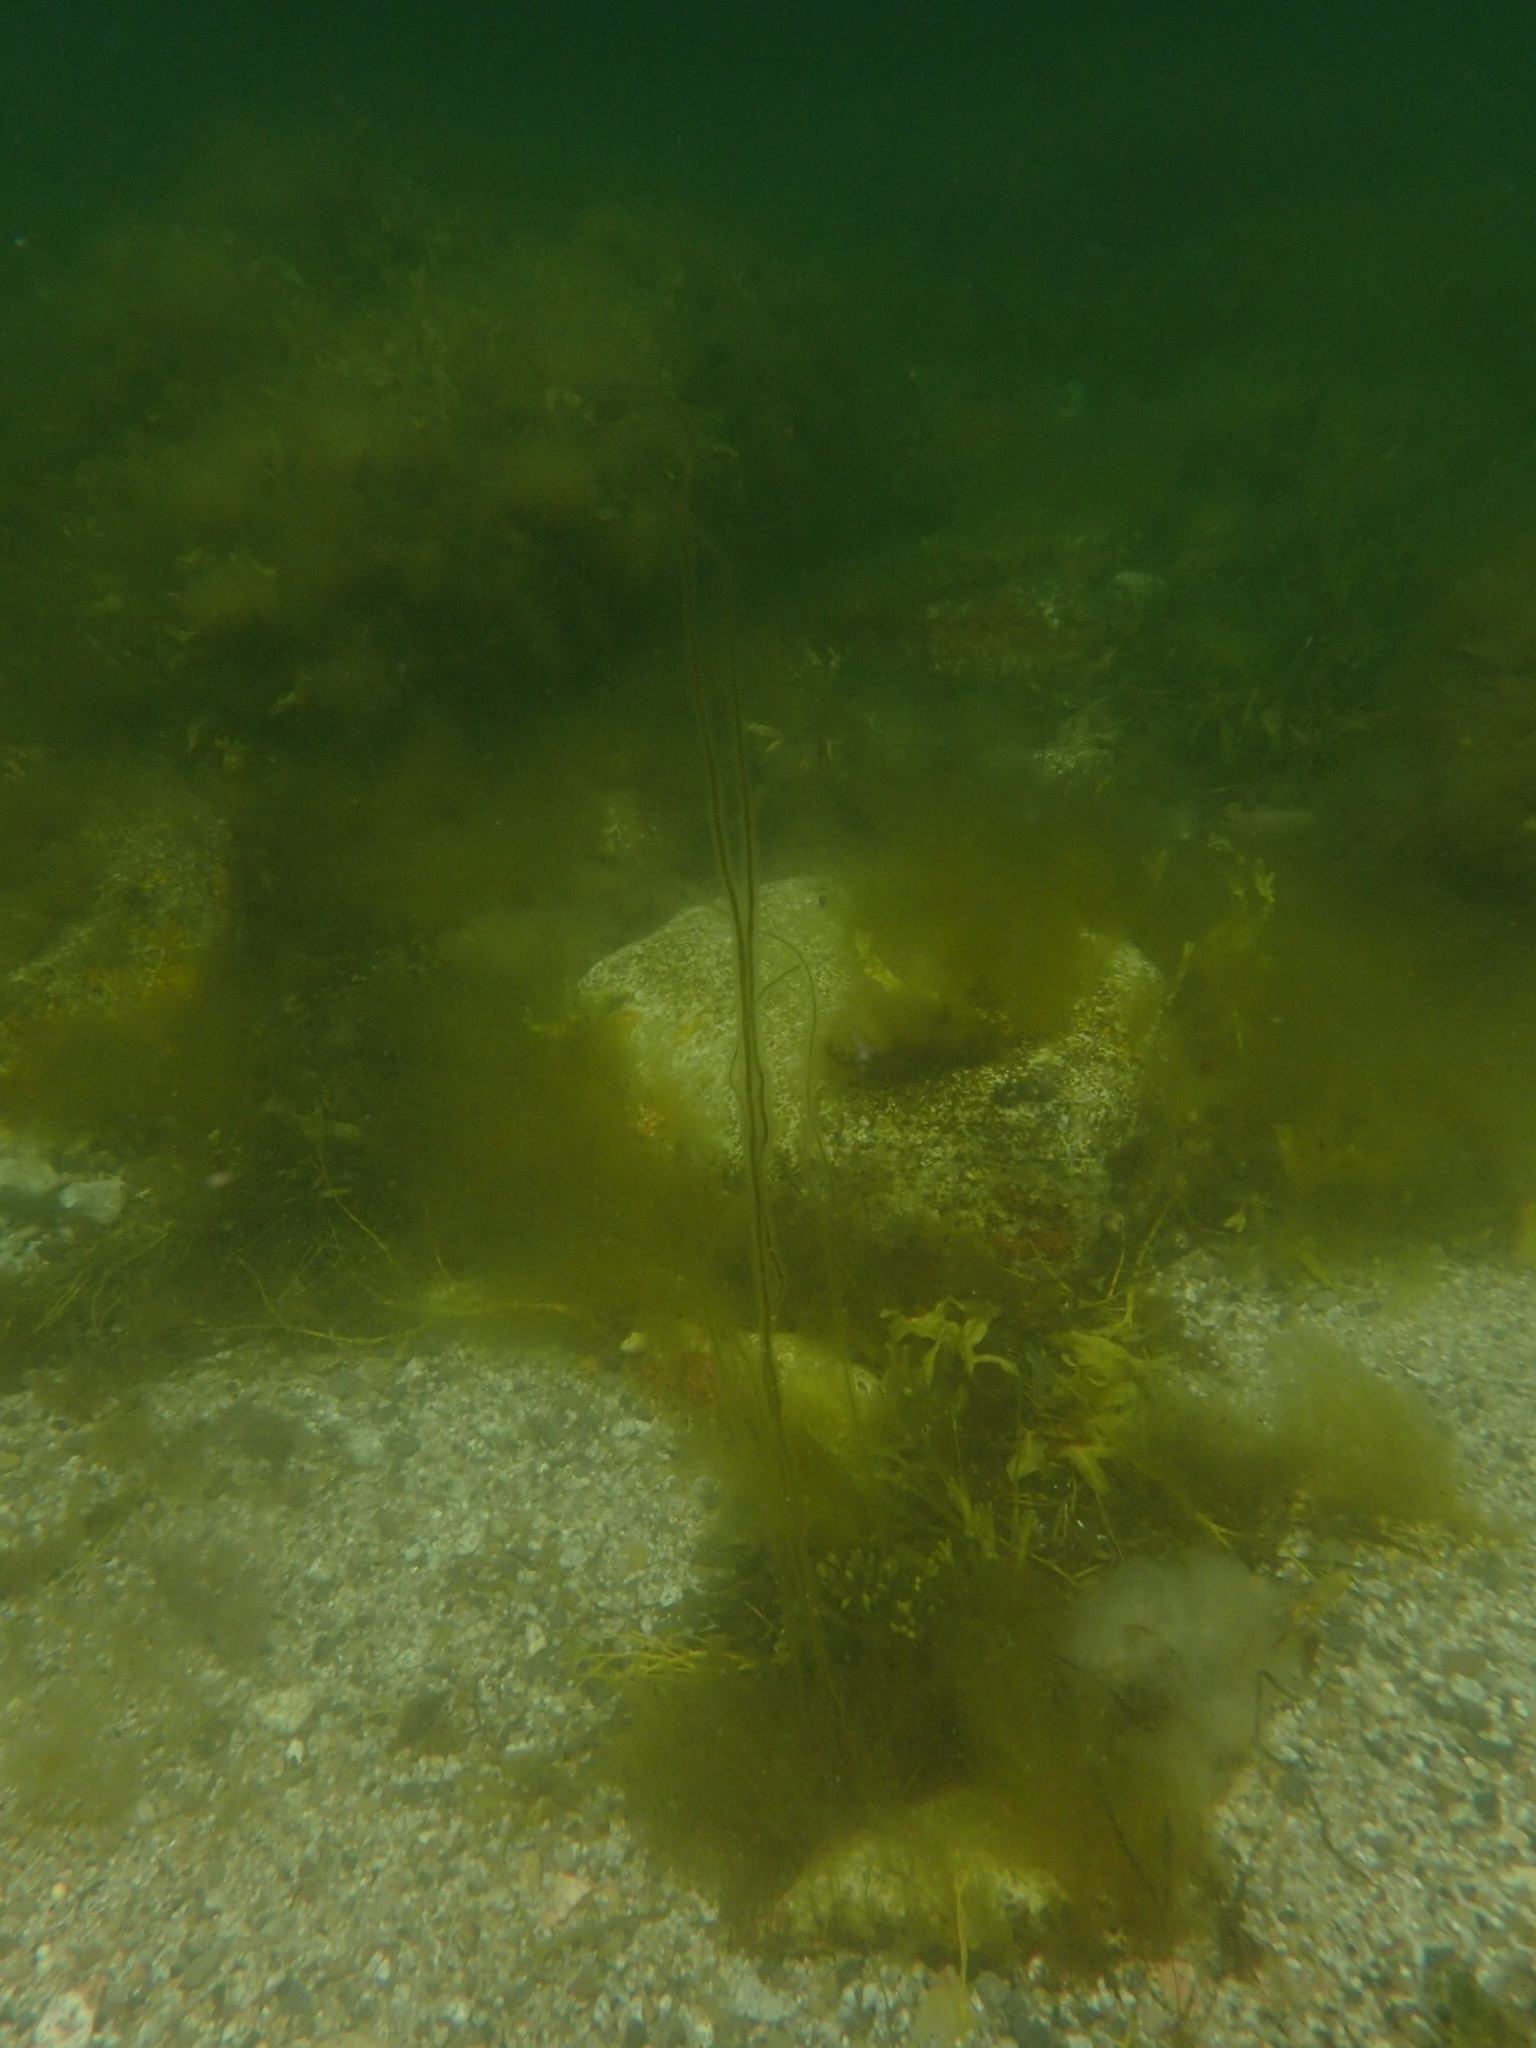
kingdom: Chromista
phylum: Ochrophyta
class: Phaeophyceae
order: Laminariales
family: Chordaceae
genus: Chorda
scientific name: Chorda filum
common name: Mermaid's tresses
